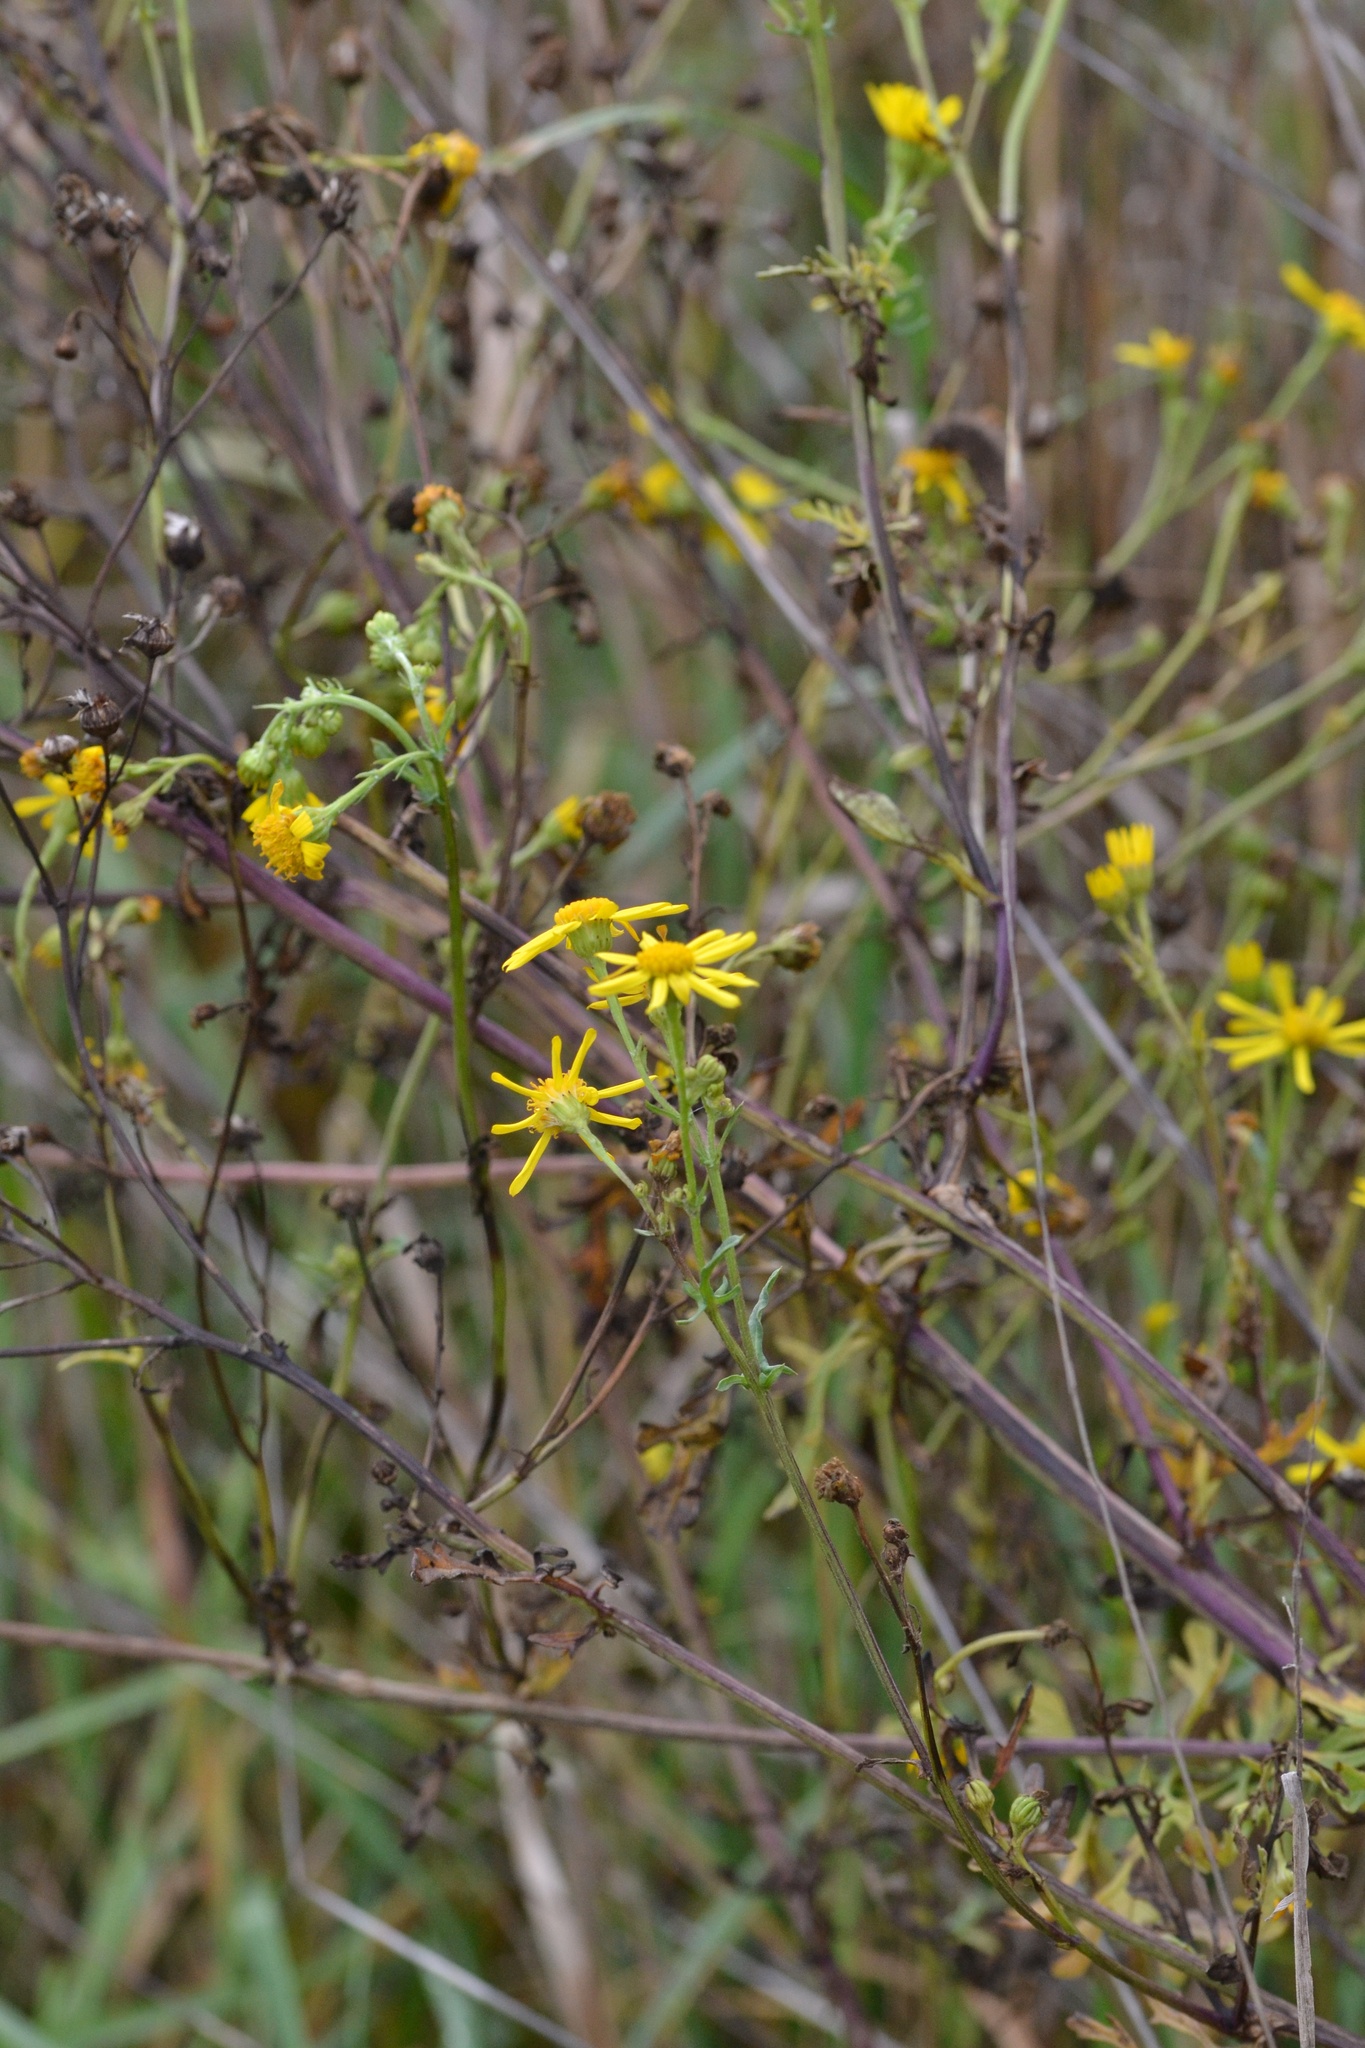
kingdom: Plantae
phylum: Tracheophyta
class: Magnoliopsida
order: Asterales
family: Asteraceae
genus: Jacobaea
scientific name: Jacobaea vulgaris
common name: Stinking willie
